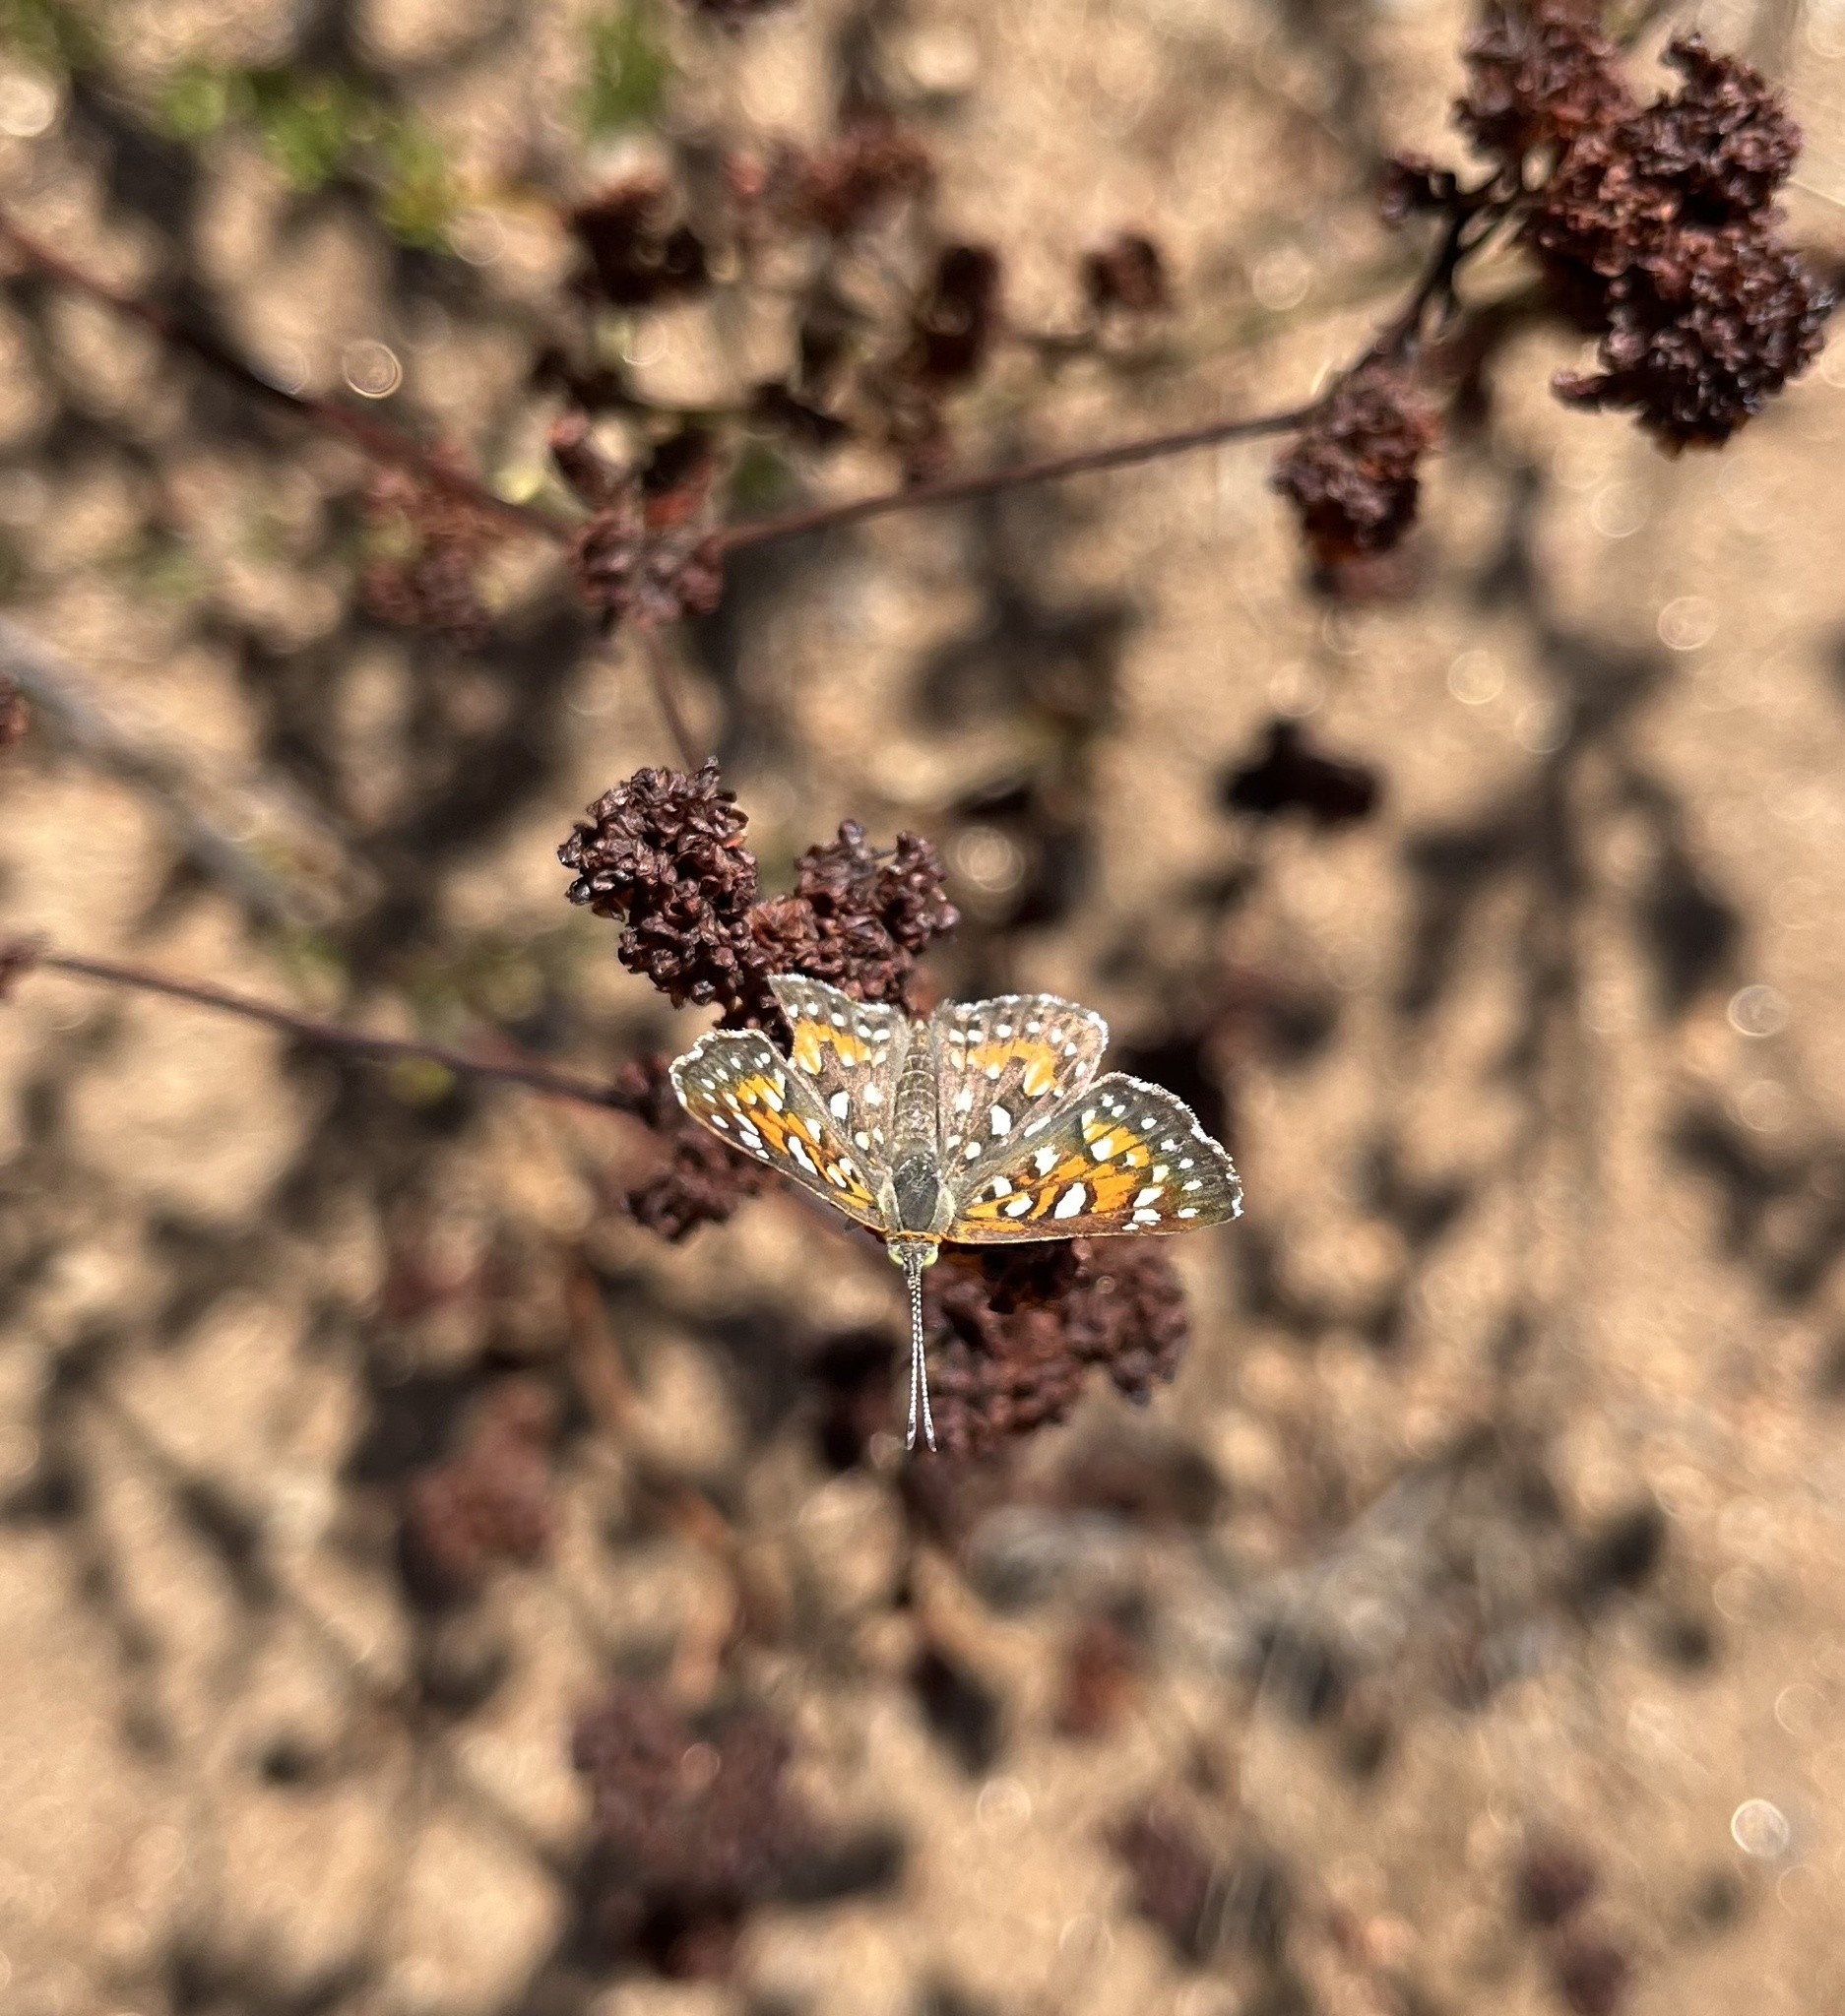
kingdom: Animalia
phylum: Arthropoda
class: Insecta
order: Lepidoptera
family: Riodinidae
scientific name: Riodinidae
